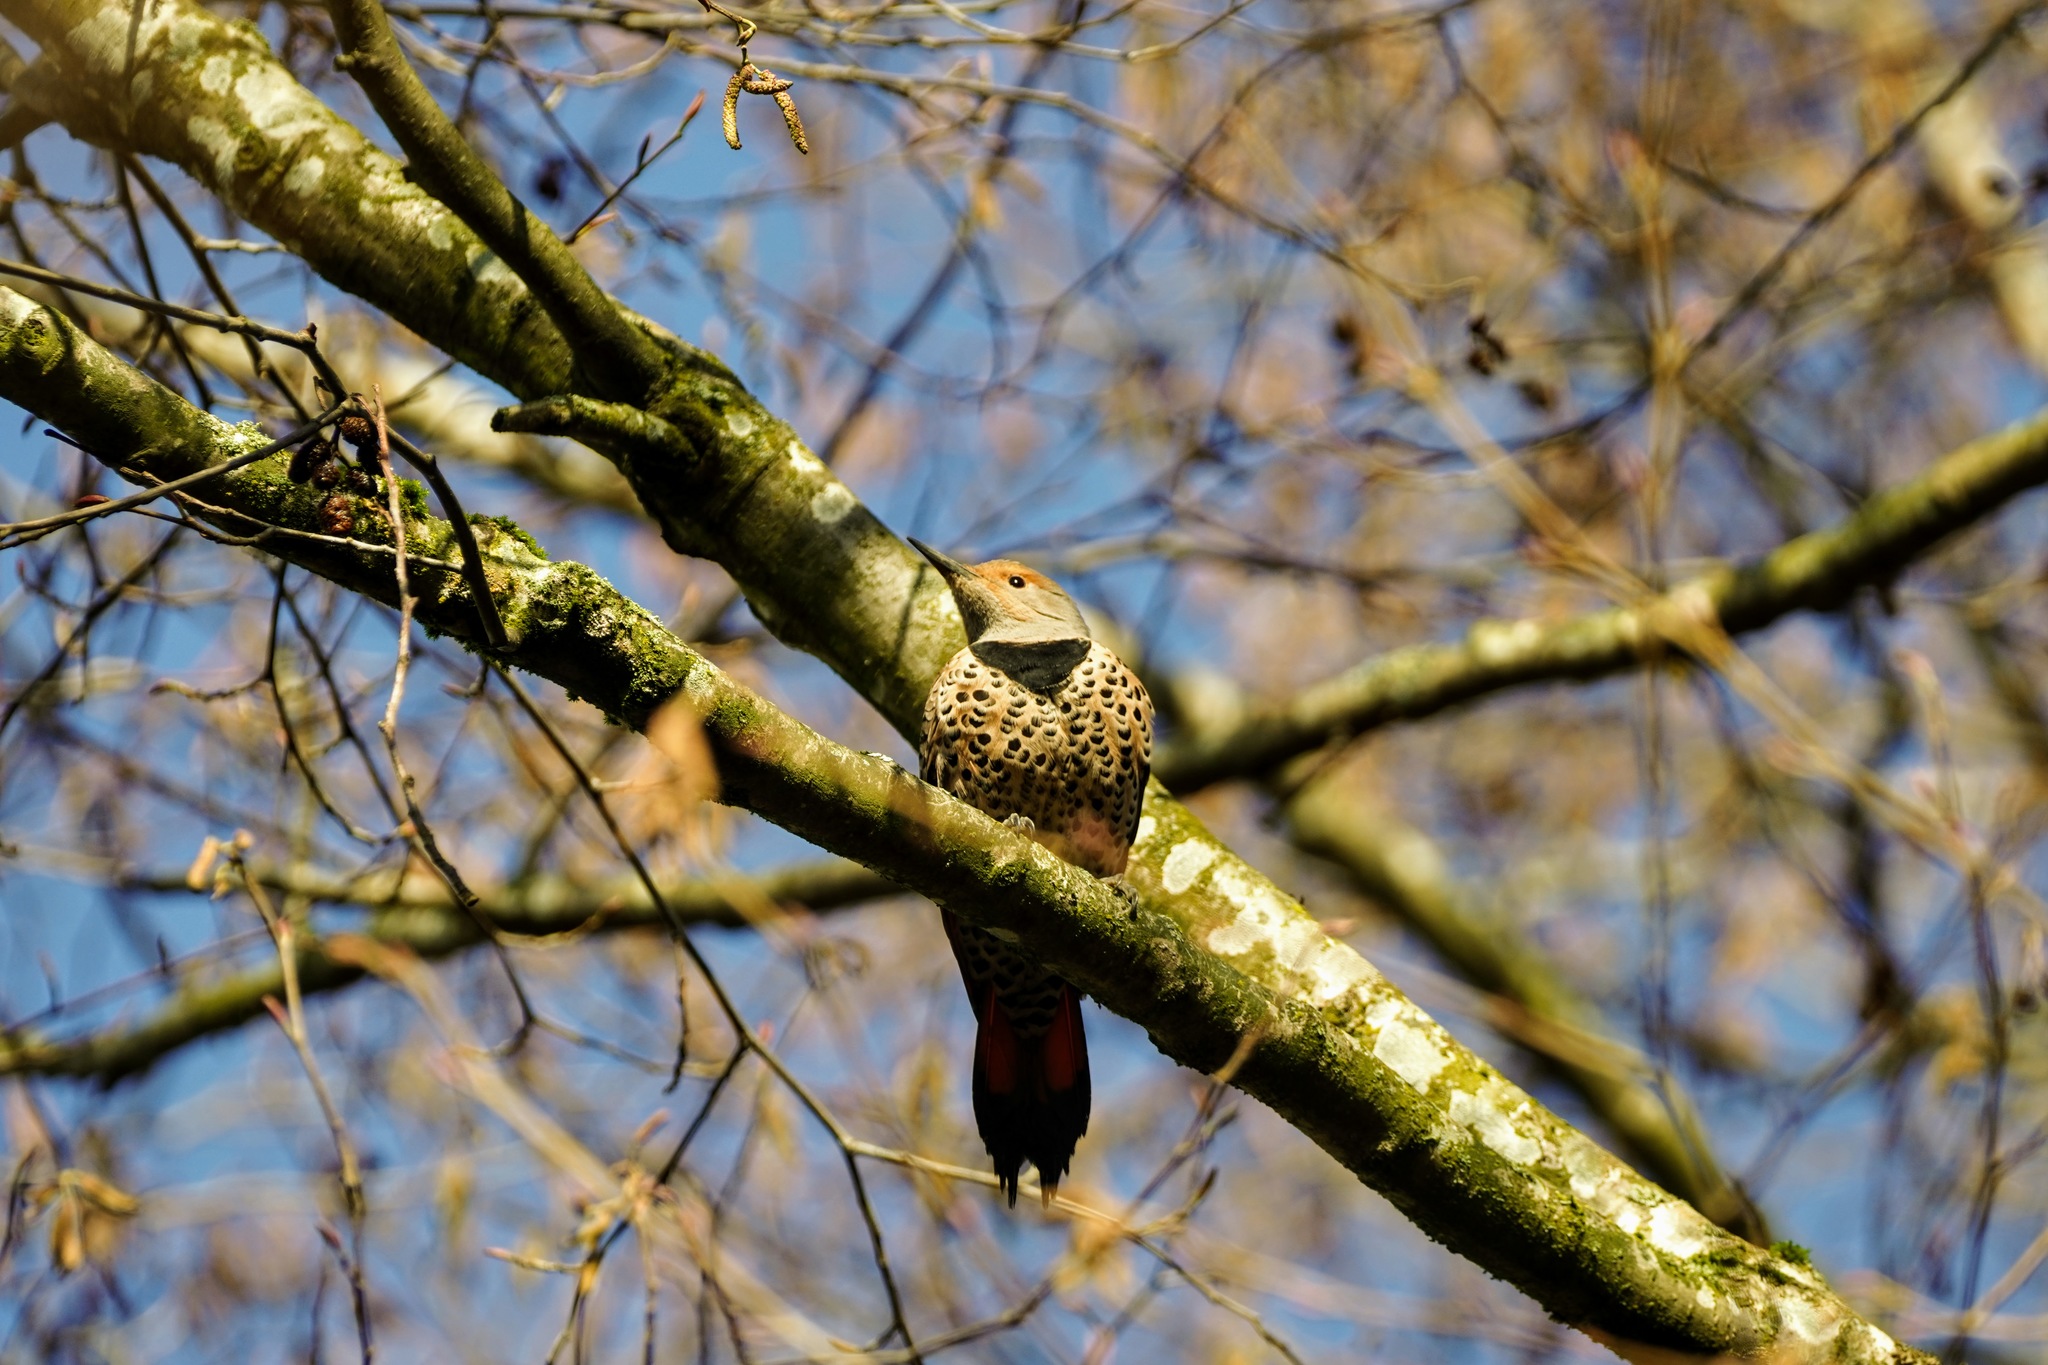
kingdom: Animalia
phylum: Chordata
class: Aves
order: Piciformes
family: Picidae
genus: Colaptes
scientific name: Colaptes auratus
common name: Northern flicker
